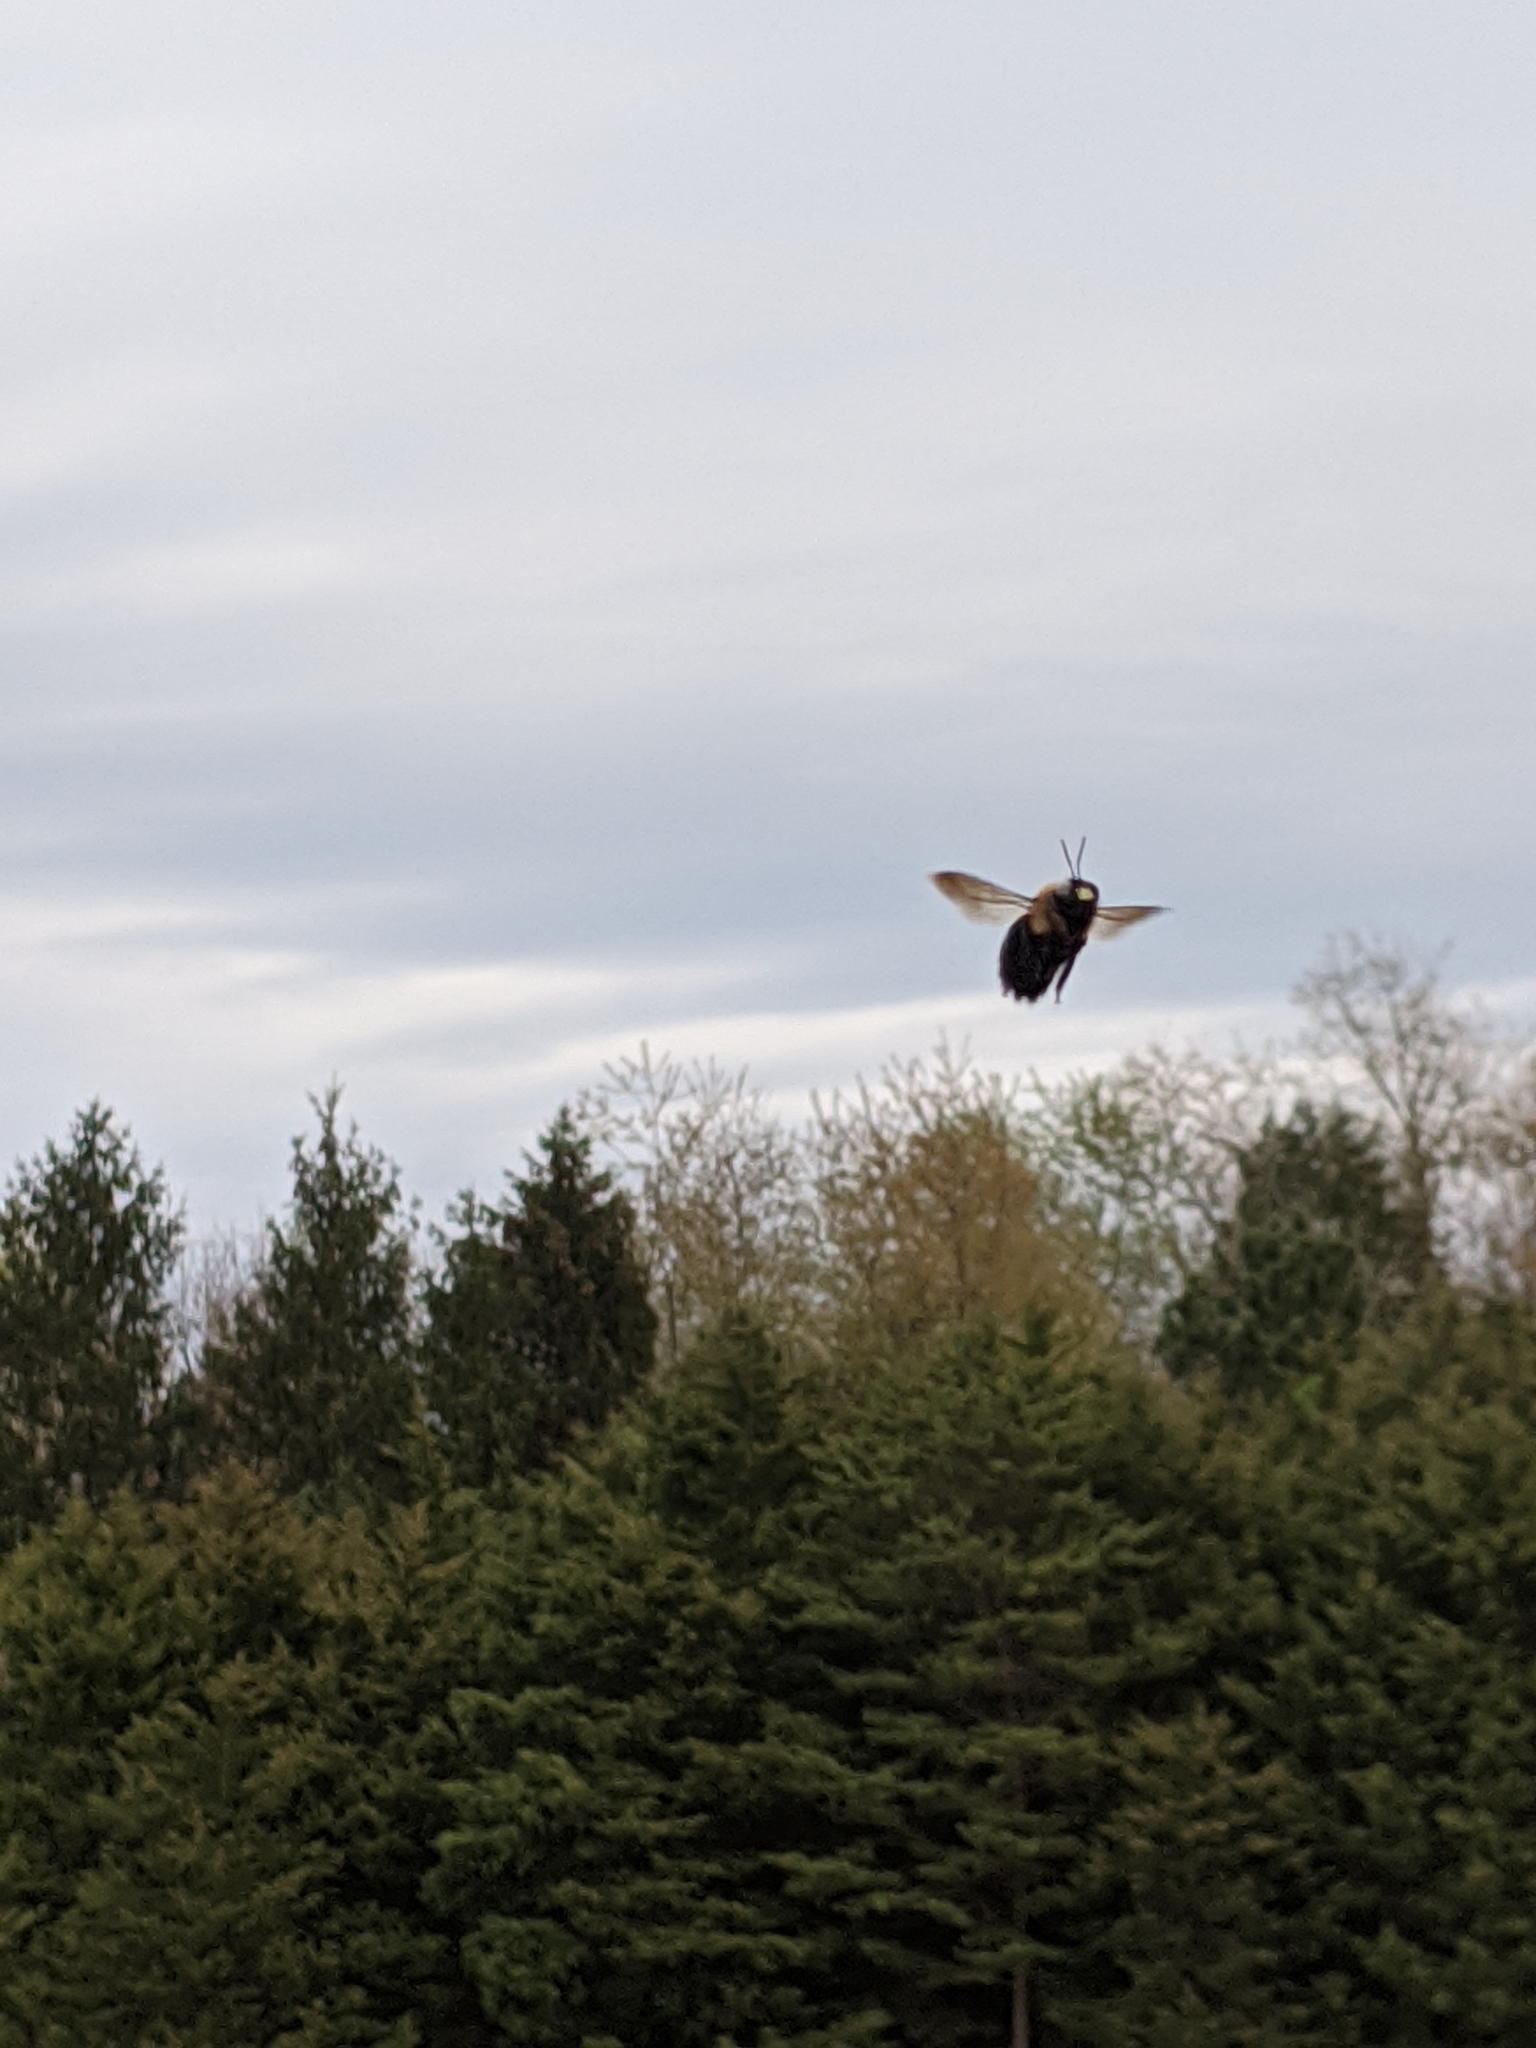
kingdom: Animalia
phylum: Arthropoda
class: Insecta
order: Hymenoptera
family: Apidae
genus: Xylocopa
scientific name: Xylocopa virginica
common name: Carpenter bee
